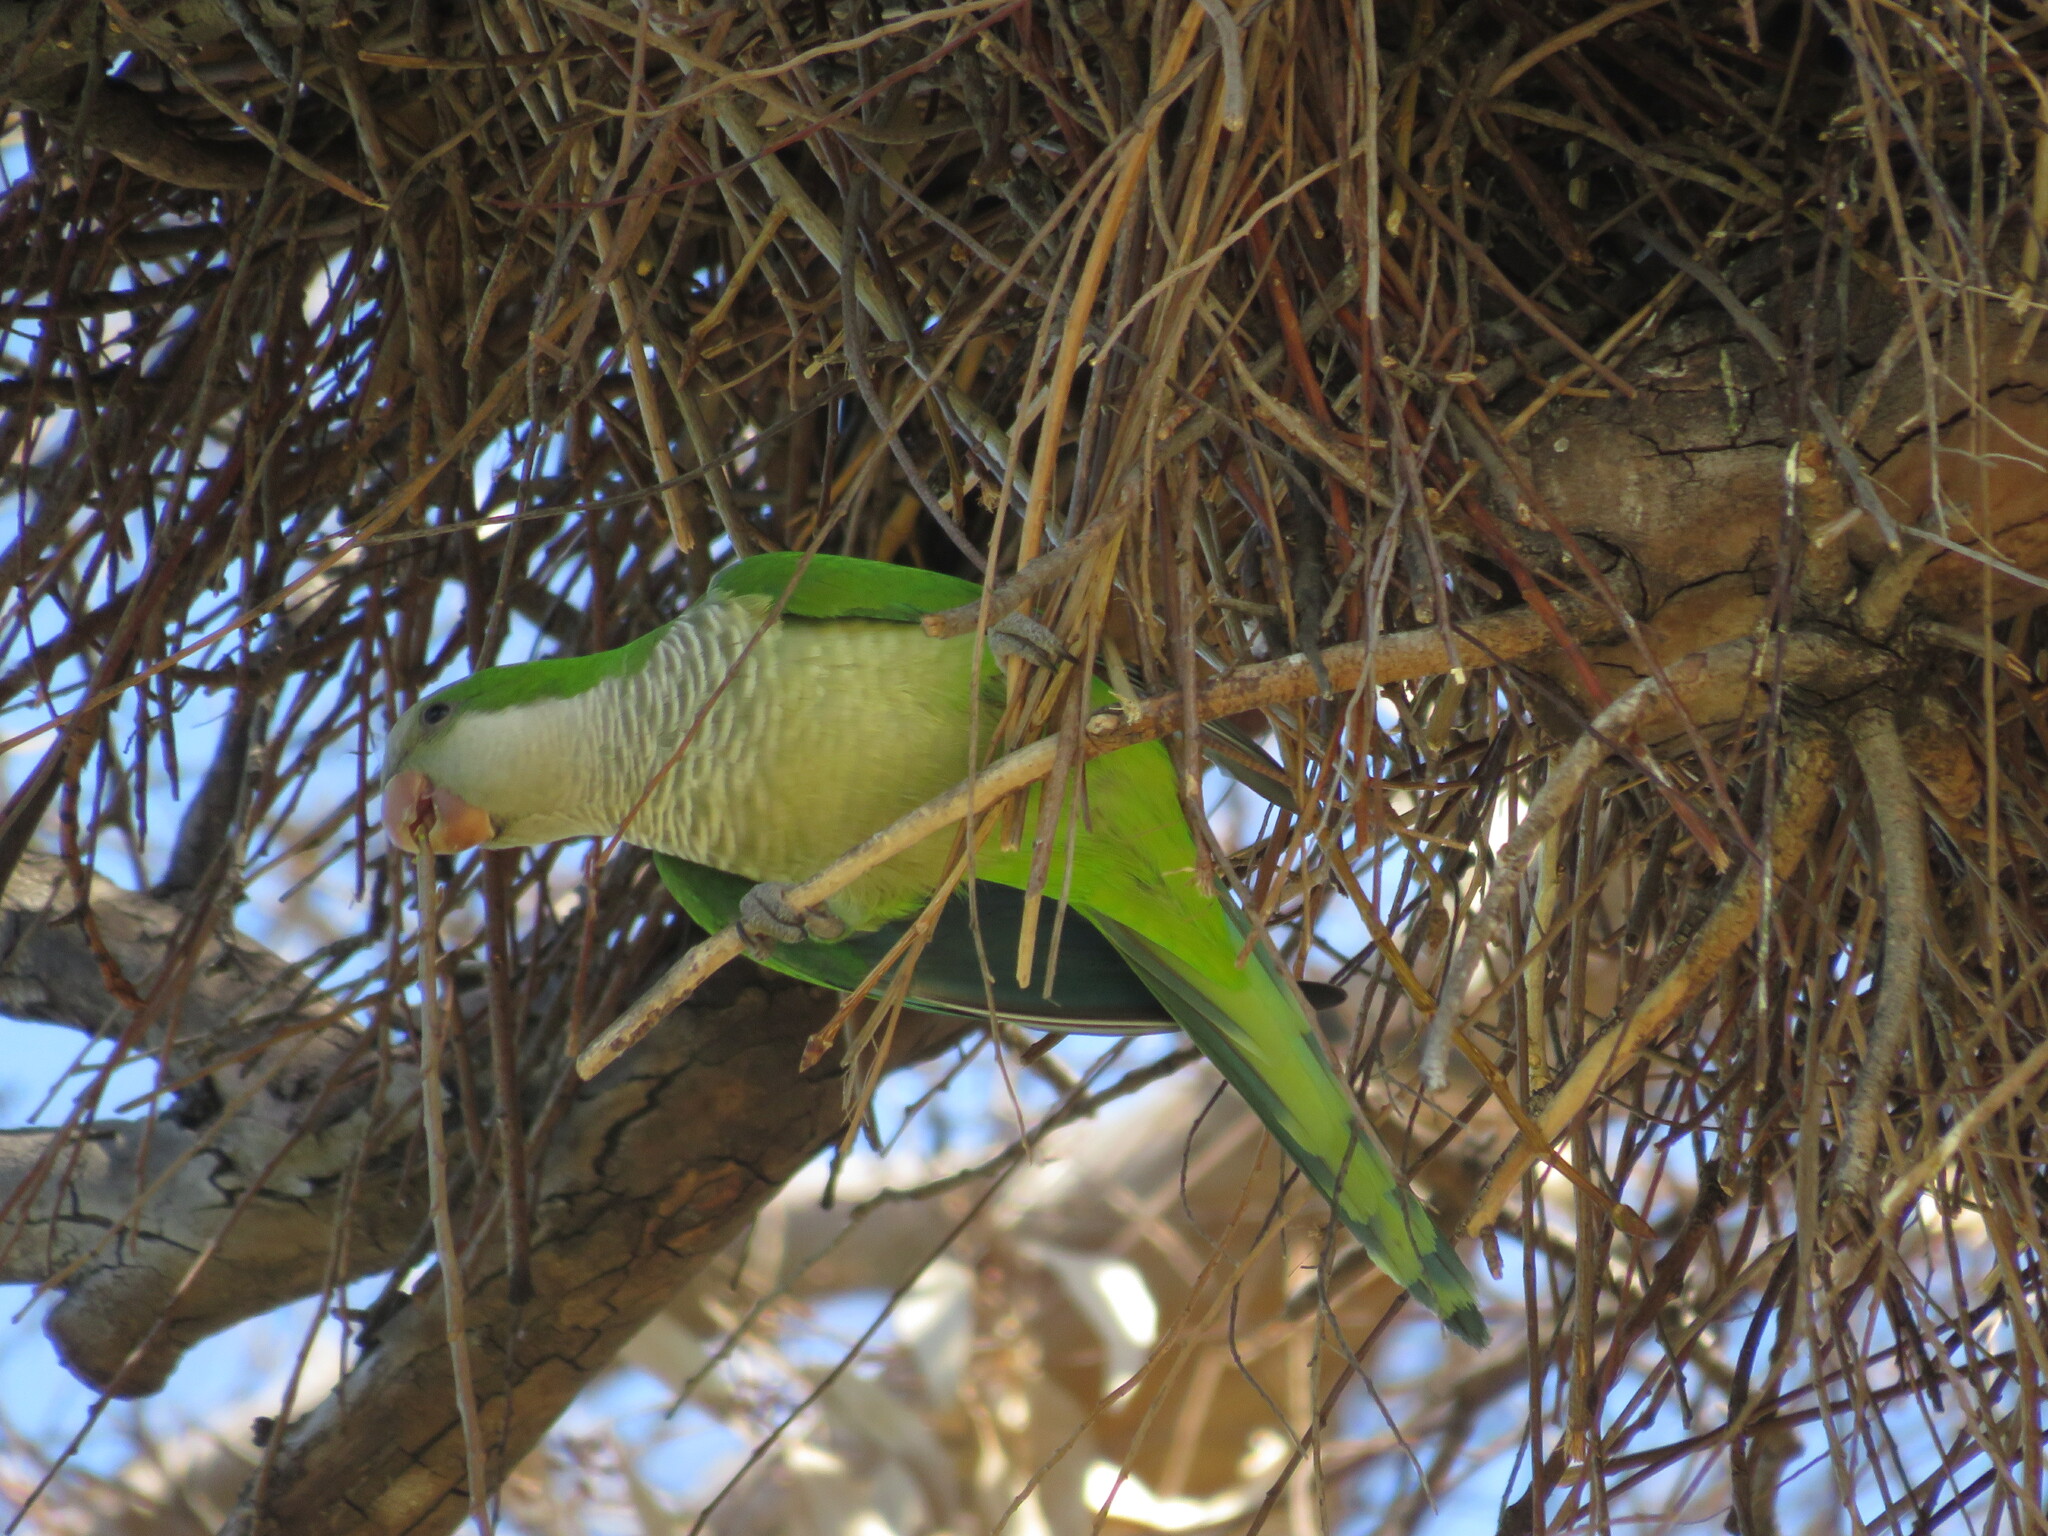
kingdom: Animalia
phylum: Chordata
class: Aves
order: Psittaciformes
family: Psittacidae
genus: Myiopsitta
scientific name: Myiopsitta monachus
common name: Monk parakeet
